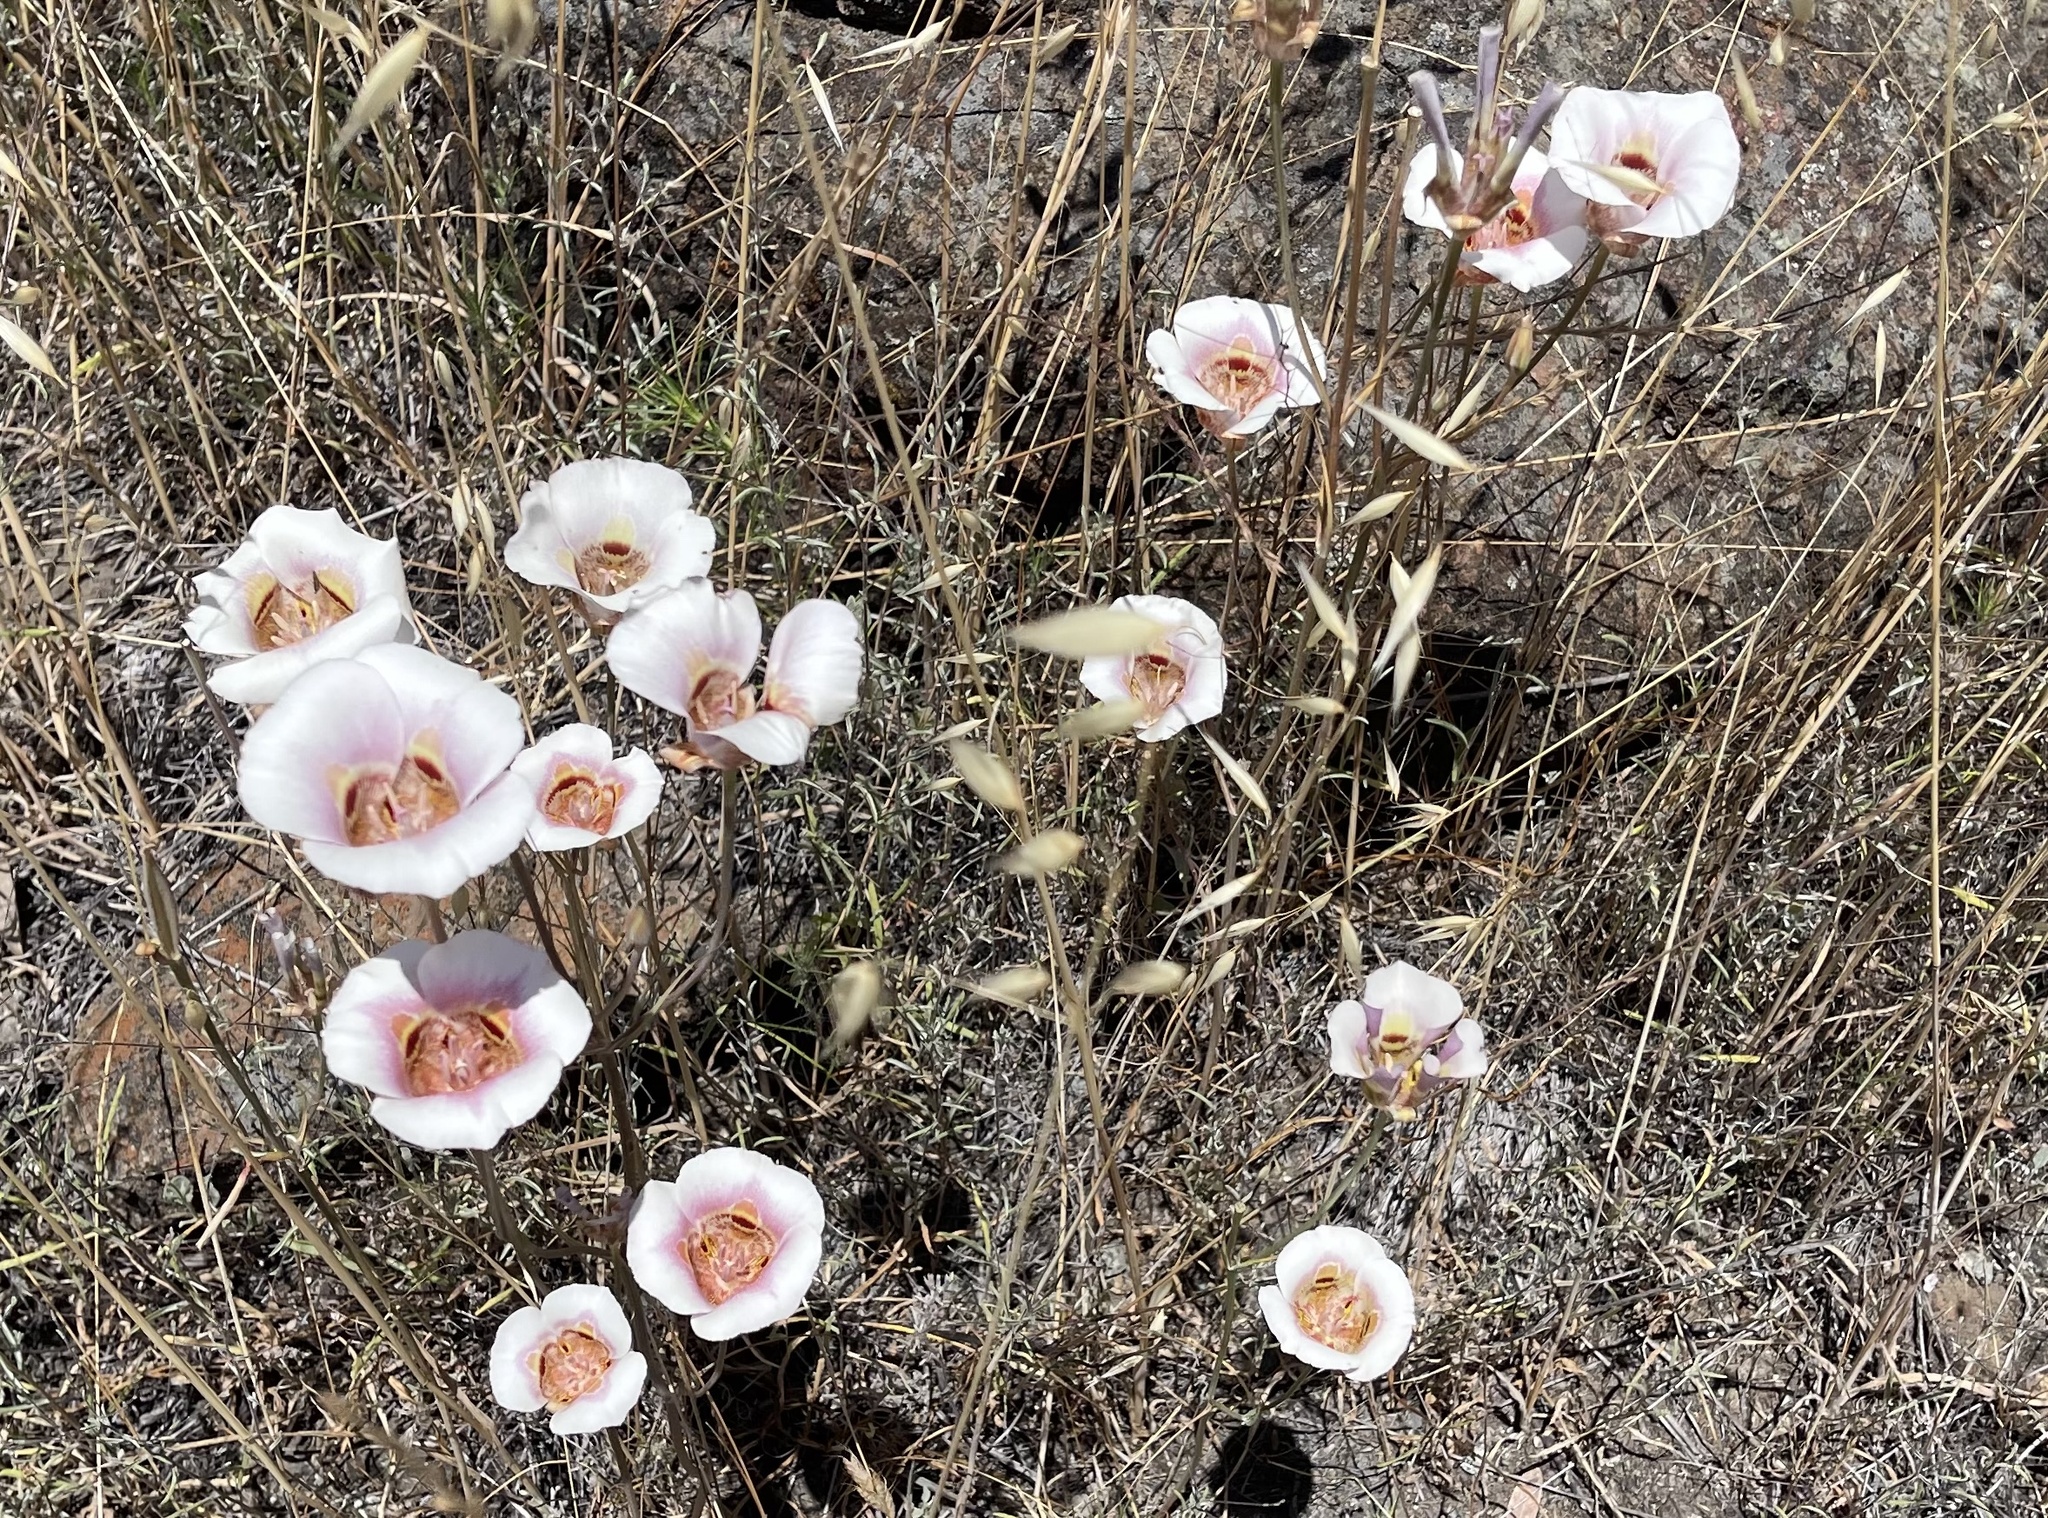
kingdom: Plantae
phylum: Tracheophyta
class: Liliopsida
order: Liliales
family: Liliaceae
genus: Calochortus
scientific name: Calochortus argillosus
